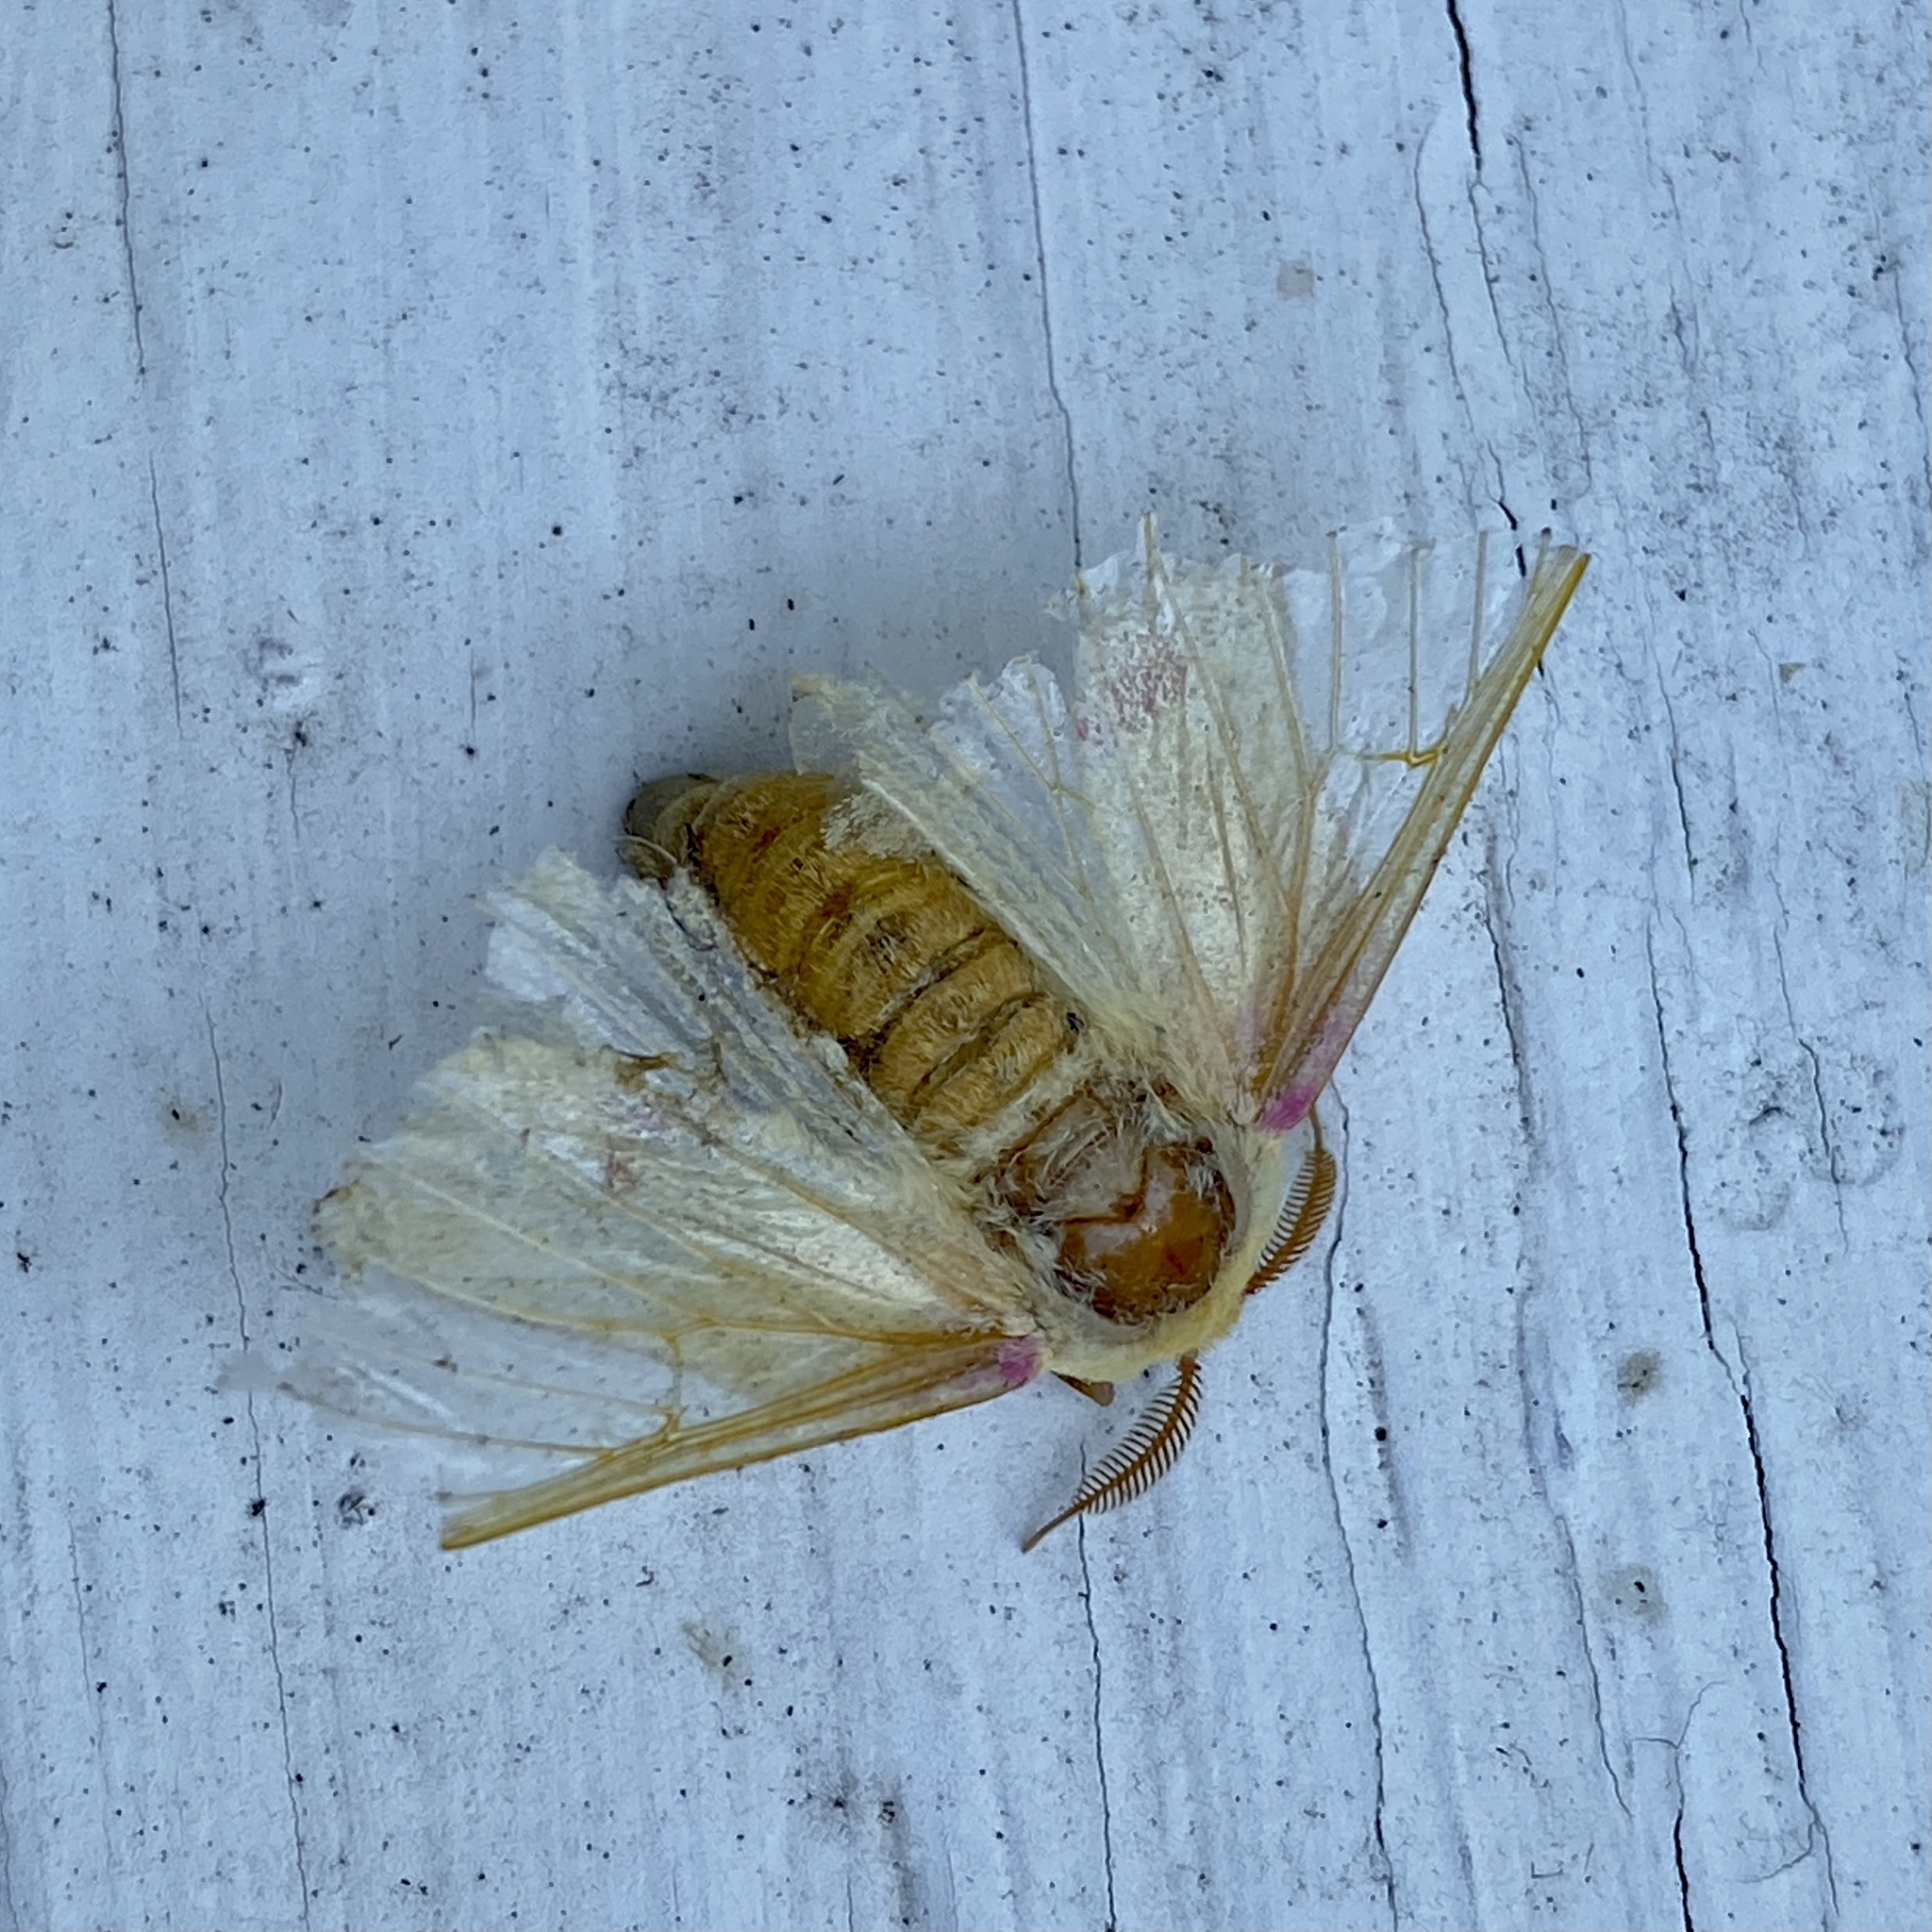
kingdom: Animalia
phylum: Arthropoda
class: Insecta
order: Lepidoptera
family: Saturniidae
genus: Dryocampa
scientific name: Dryocampa rubicunda
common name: Rosy maple moth
